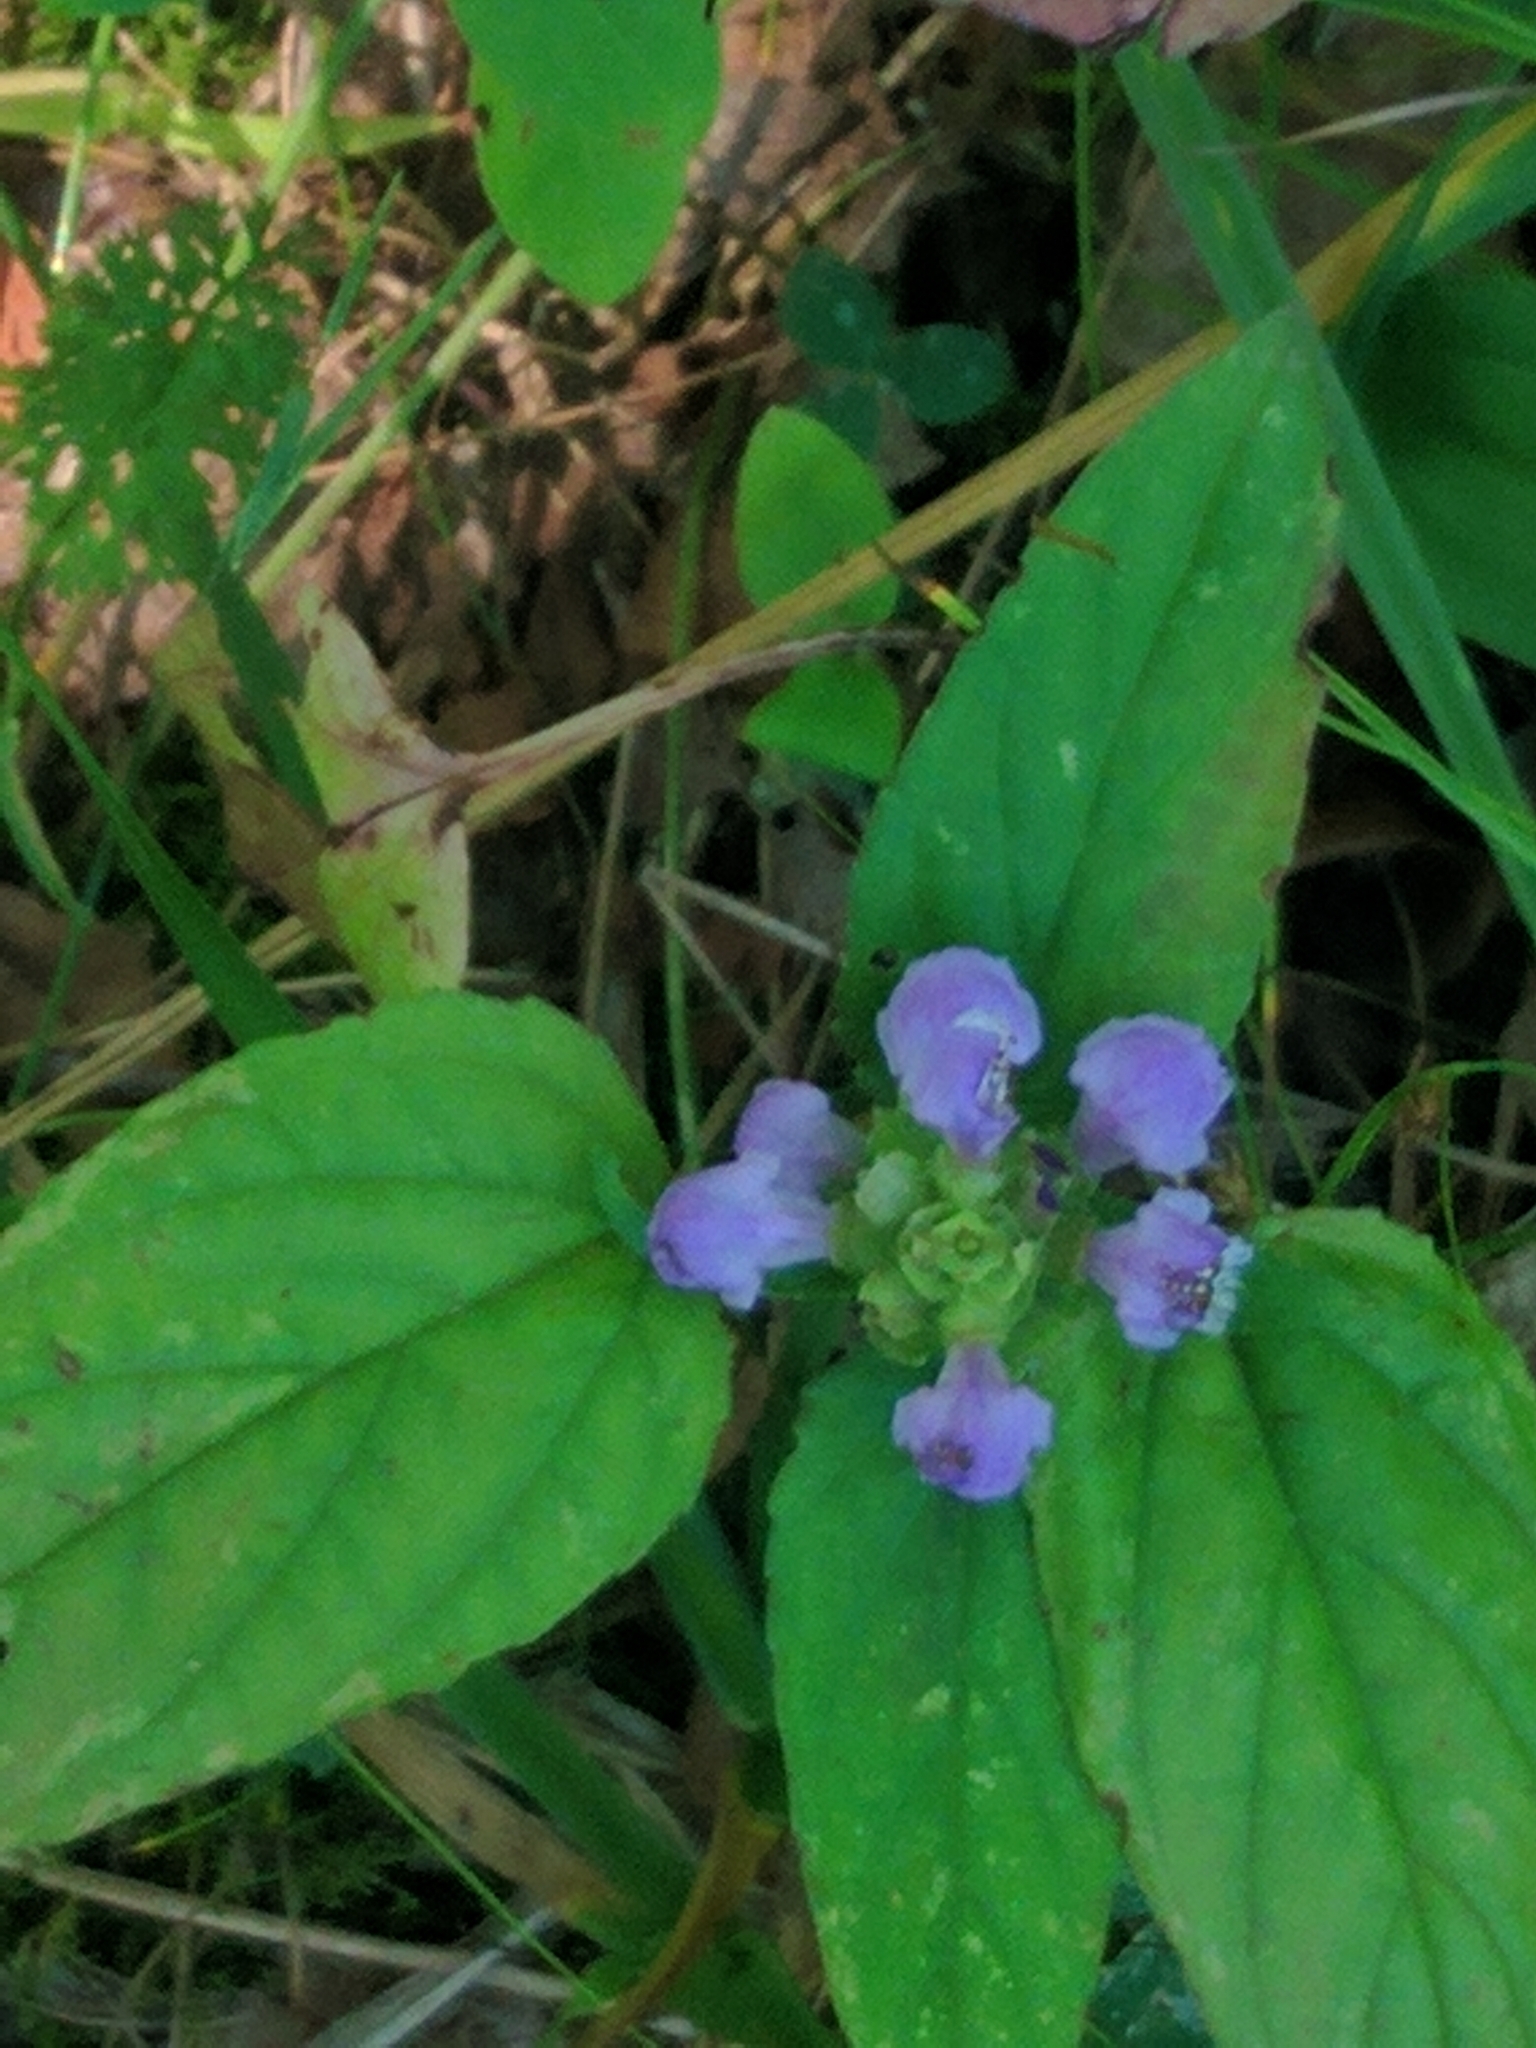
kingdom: Plantae
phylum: Tracheophyta
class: Magnoliopsida
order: Lamiales
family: Lamiaceae
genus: Prunella
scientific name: Prunella vulgaris
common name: Heal-all
